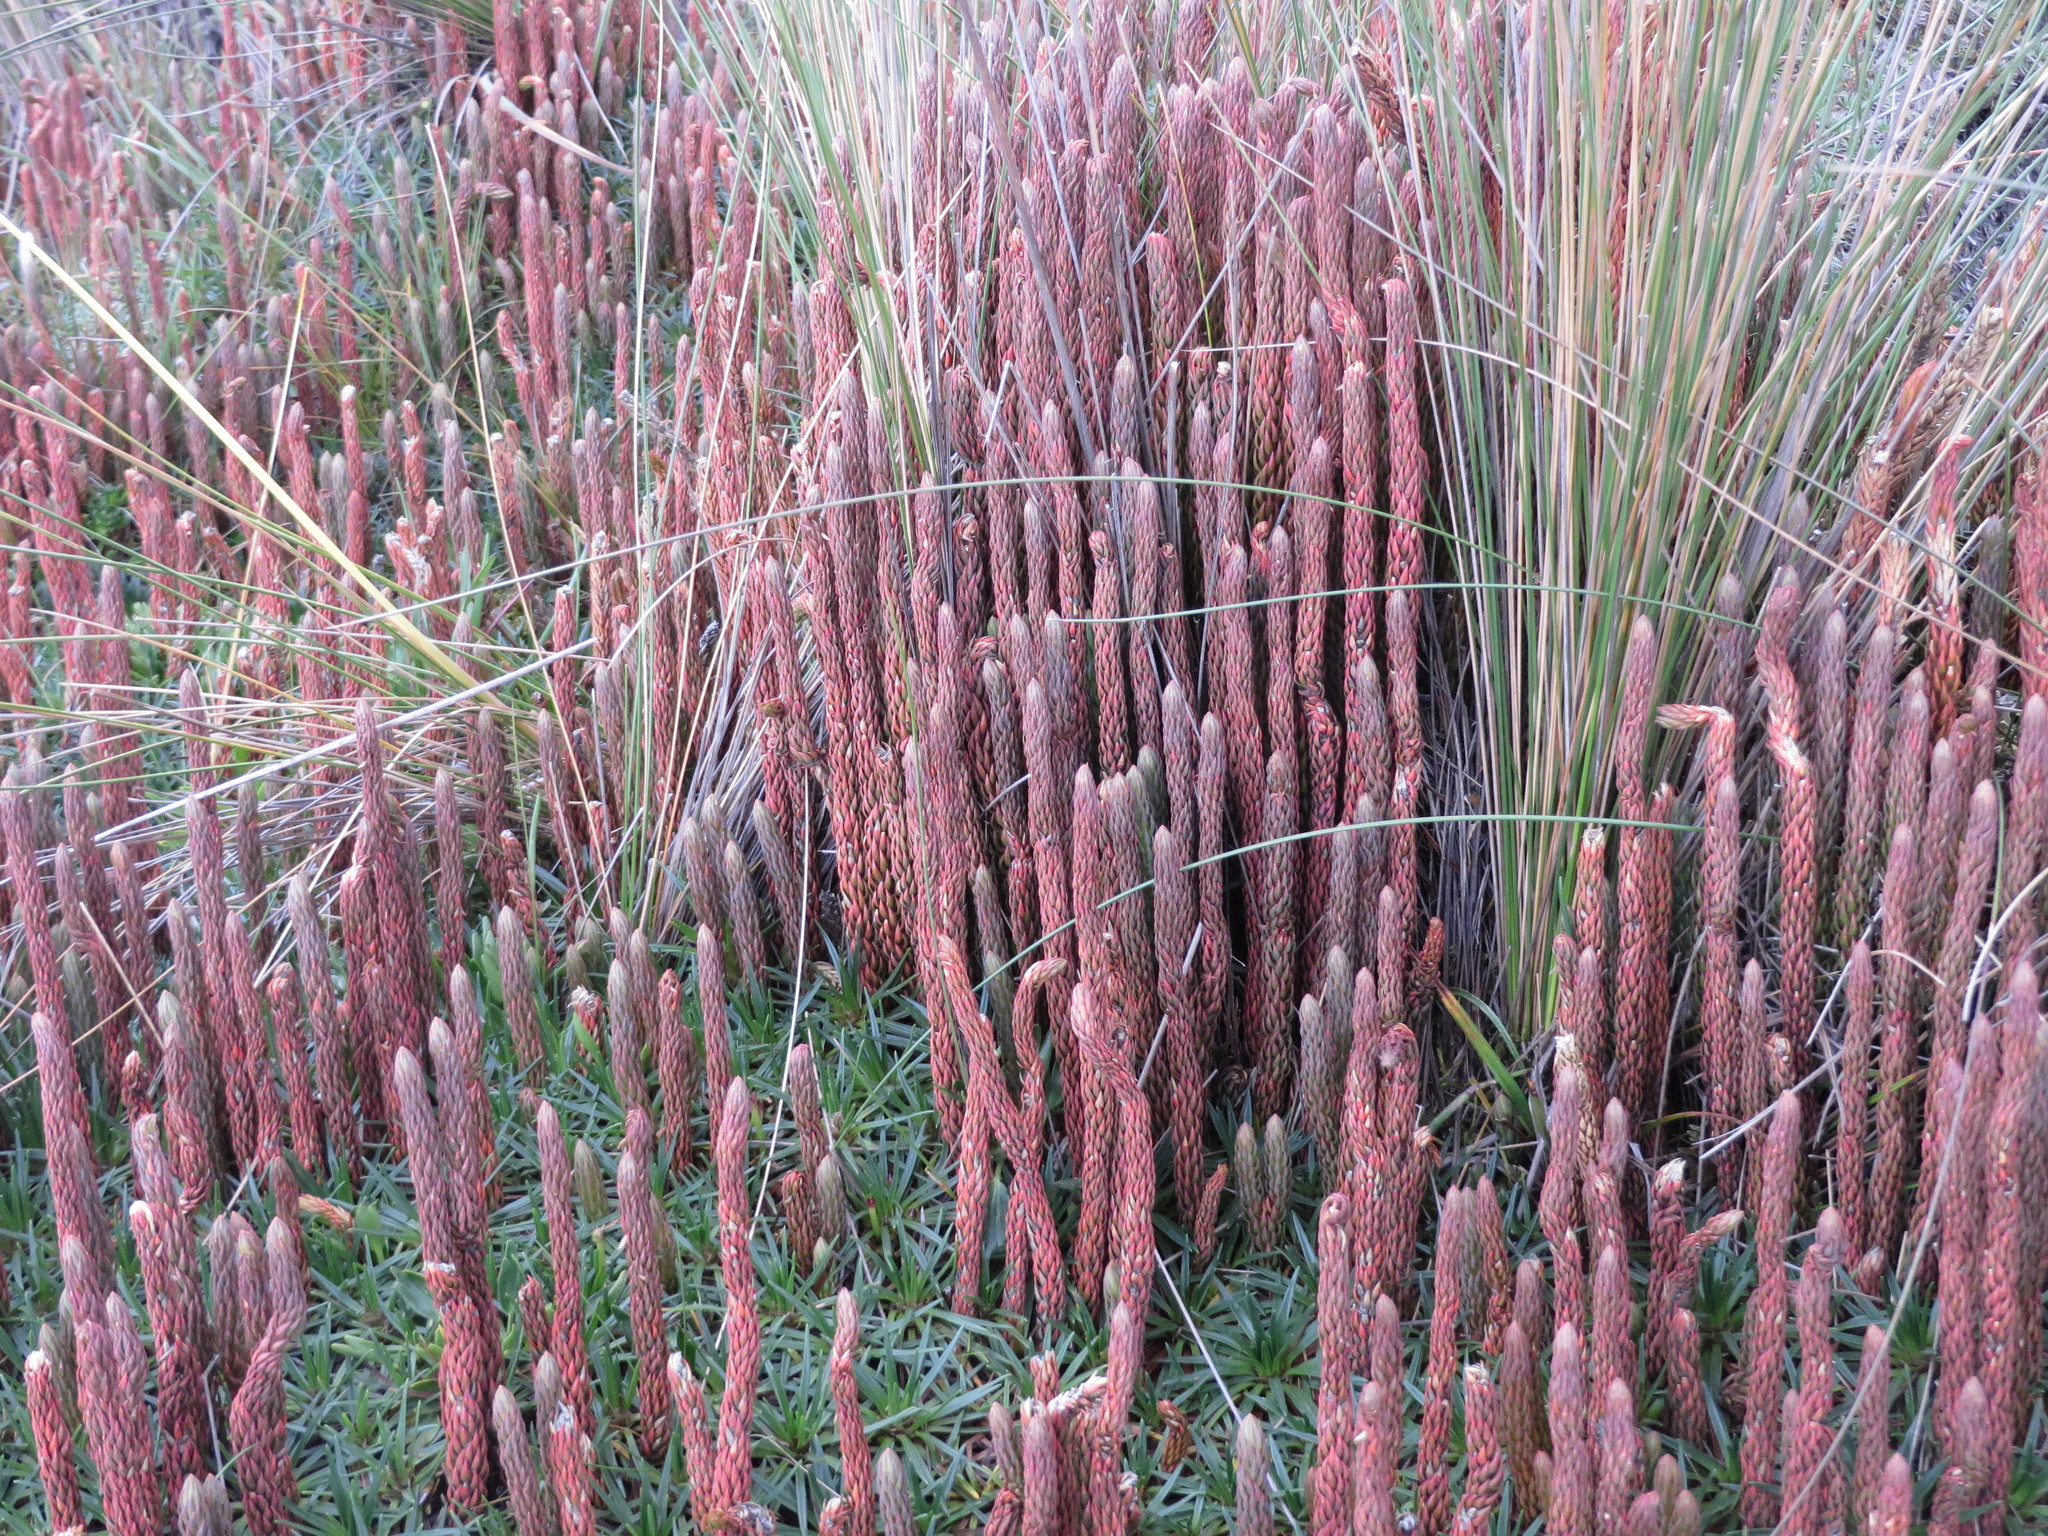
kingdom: Plantae
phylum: Tracheophyta
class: Lycopodiopsida
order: Lycopodiales
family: Lycopodiaceae
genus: Phlegmariurus
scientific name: Phlegmariurus crassus
